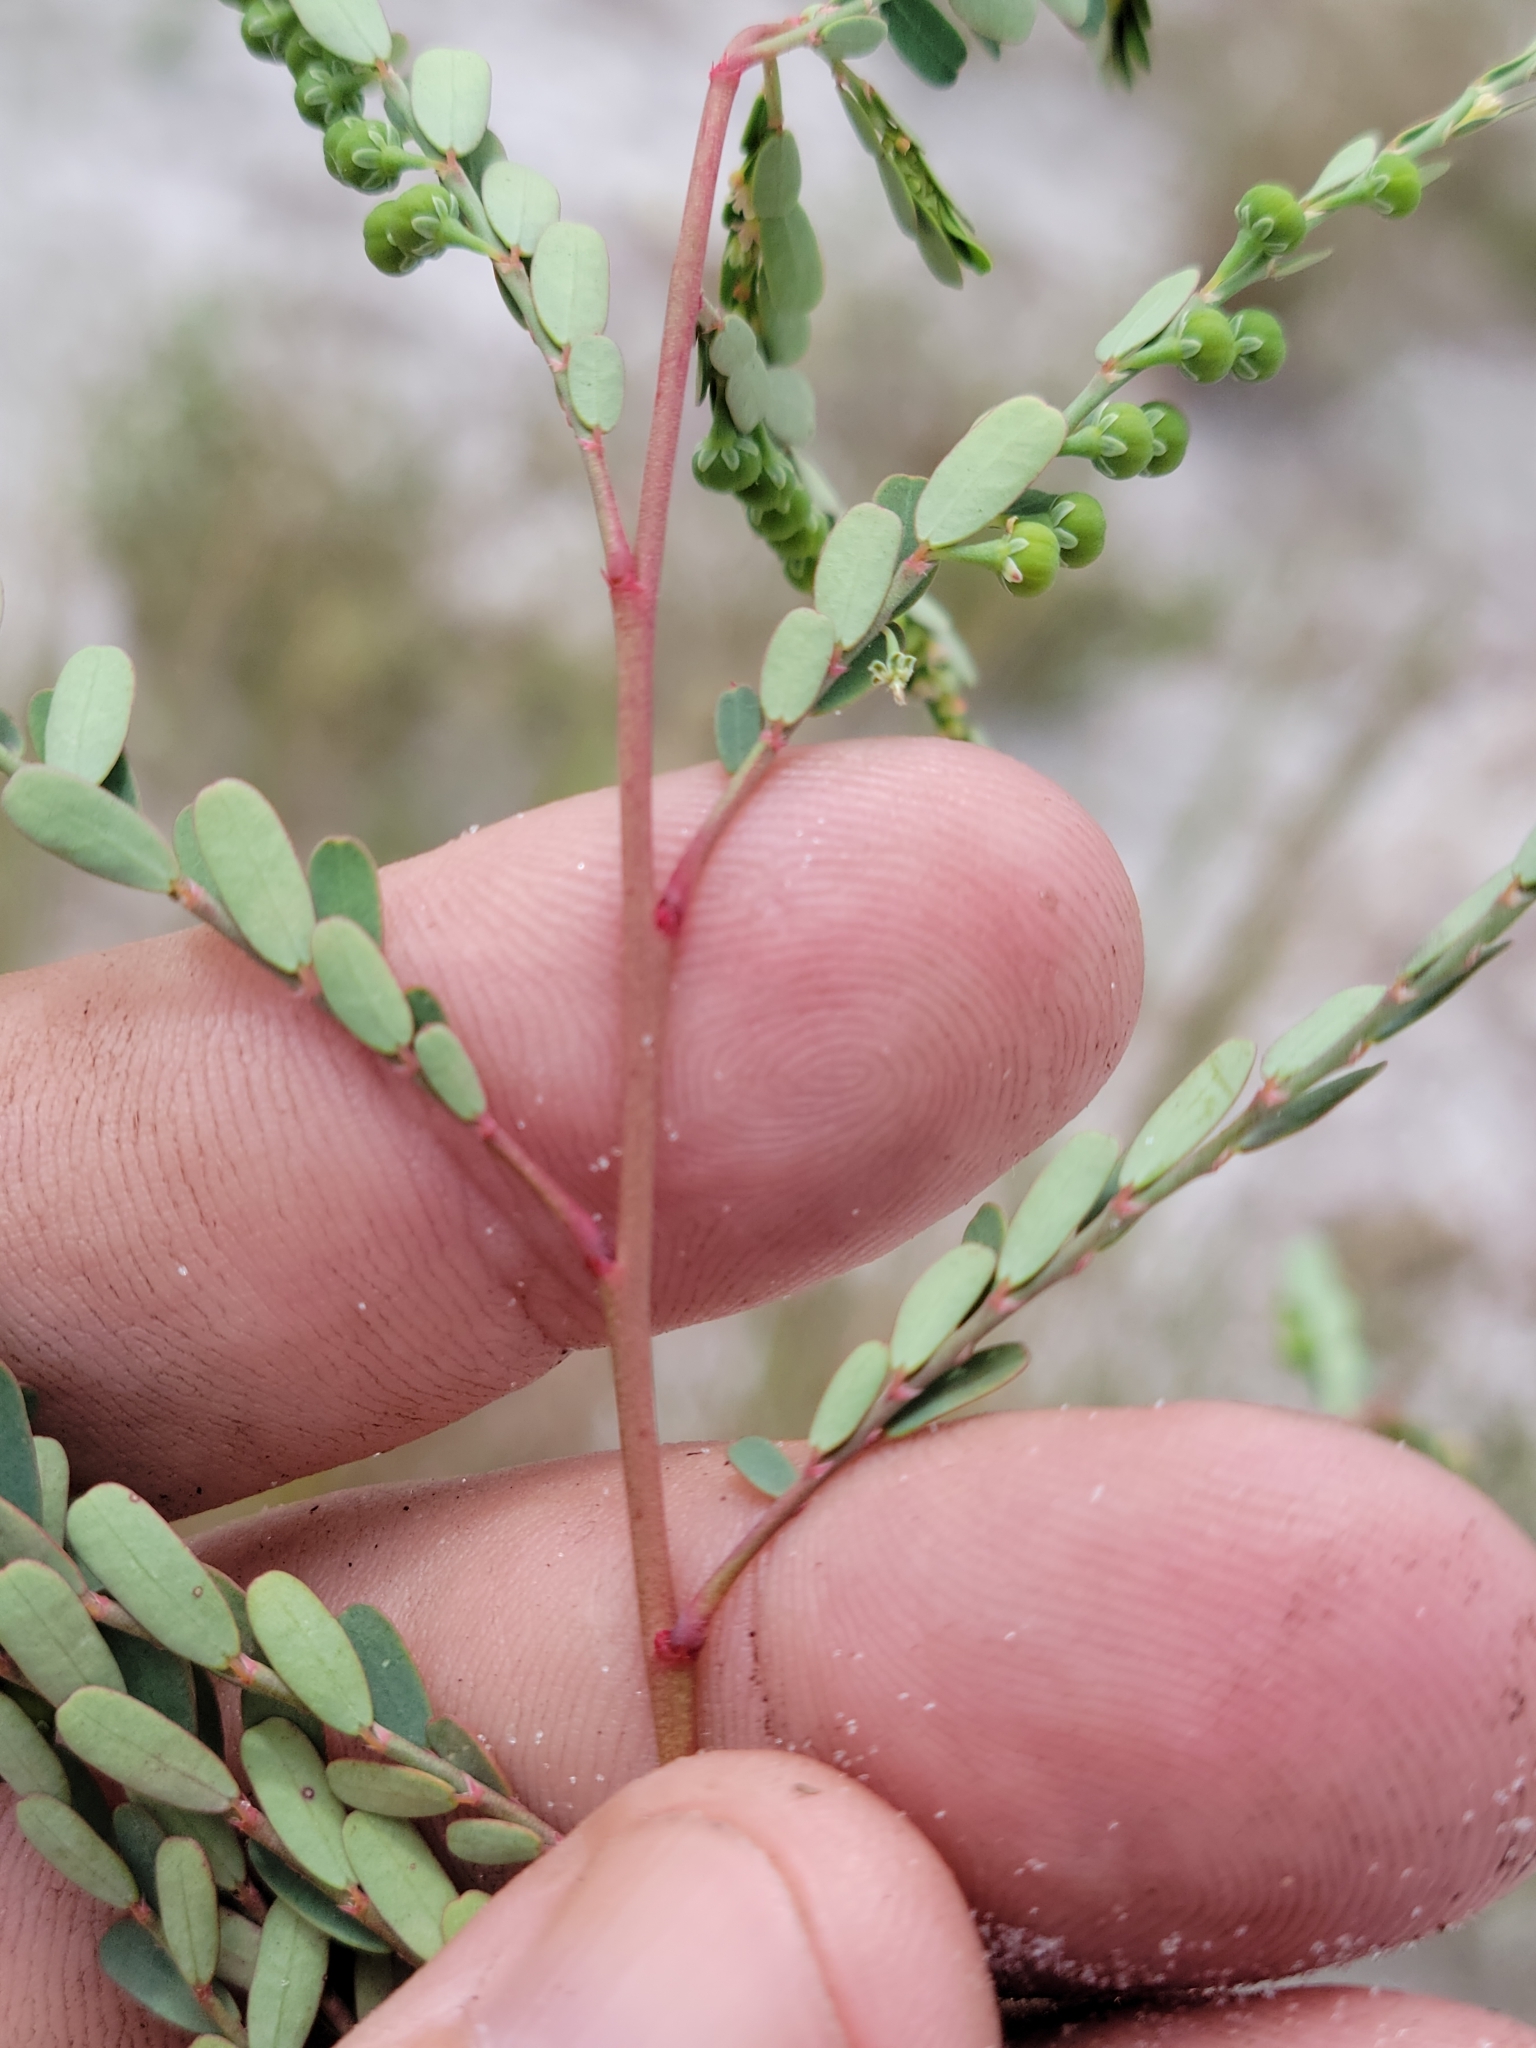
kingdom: Plantae
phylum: Tracheophyta
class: Magnoliopsida
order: Malpighiales
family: Phyllanthaceae
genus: Phyllanthus
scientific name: Phyllanthus abnormis
